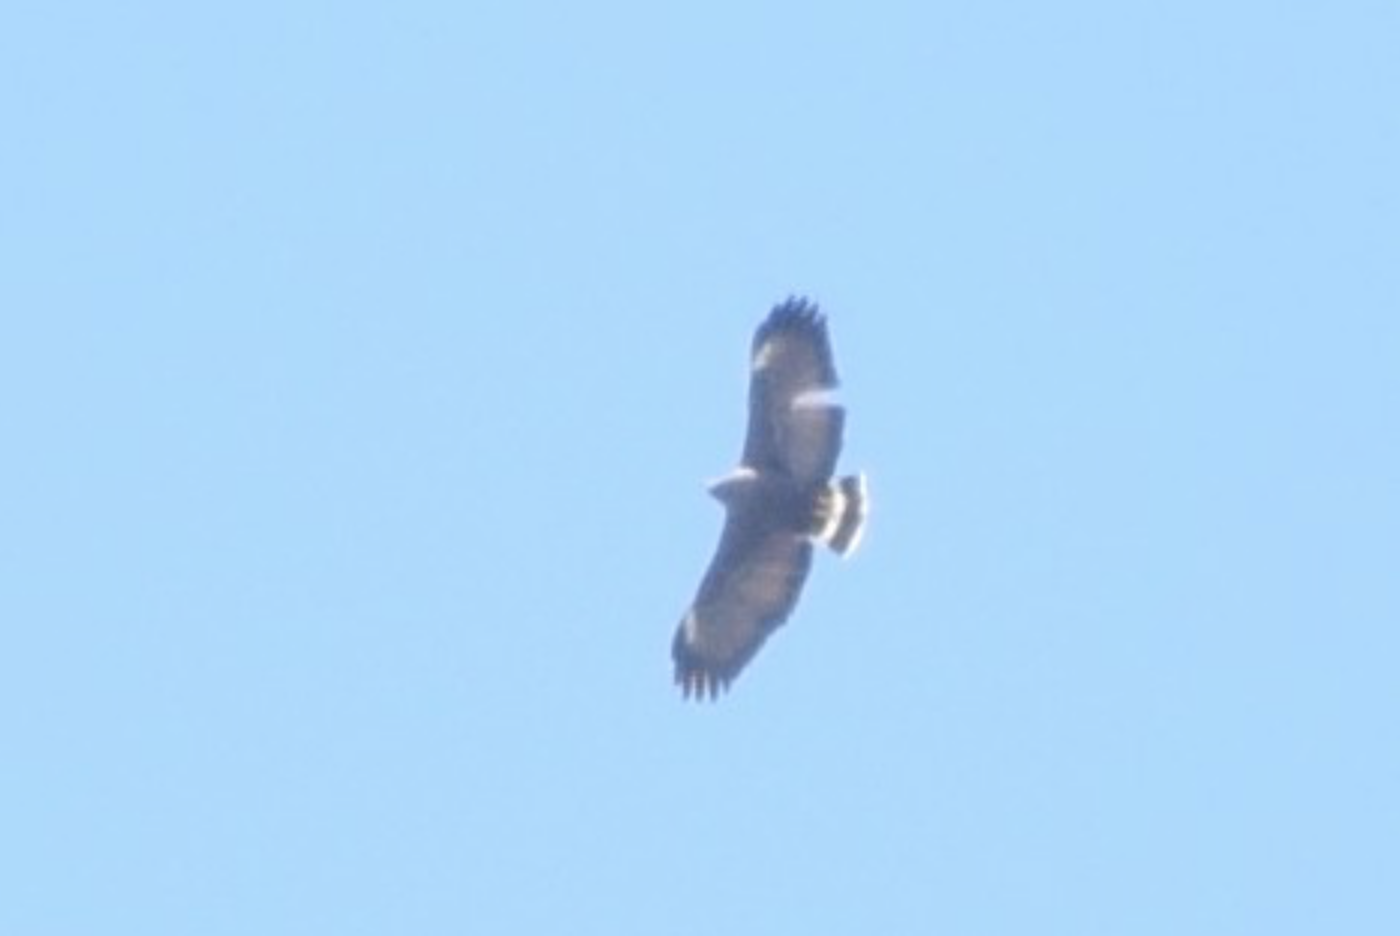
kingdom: Animalia
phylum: Chordata
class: Aves
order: Accipitriformes
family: Accipitridae
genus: Buteogallus
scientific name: Buteogallus anthracinus
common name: Common black hawk
